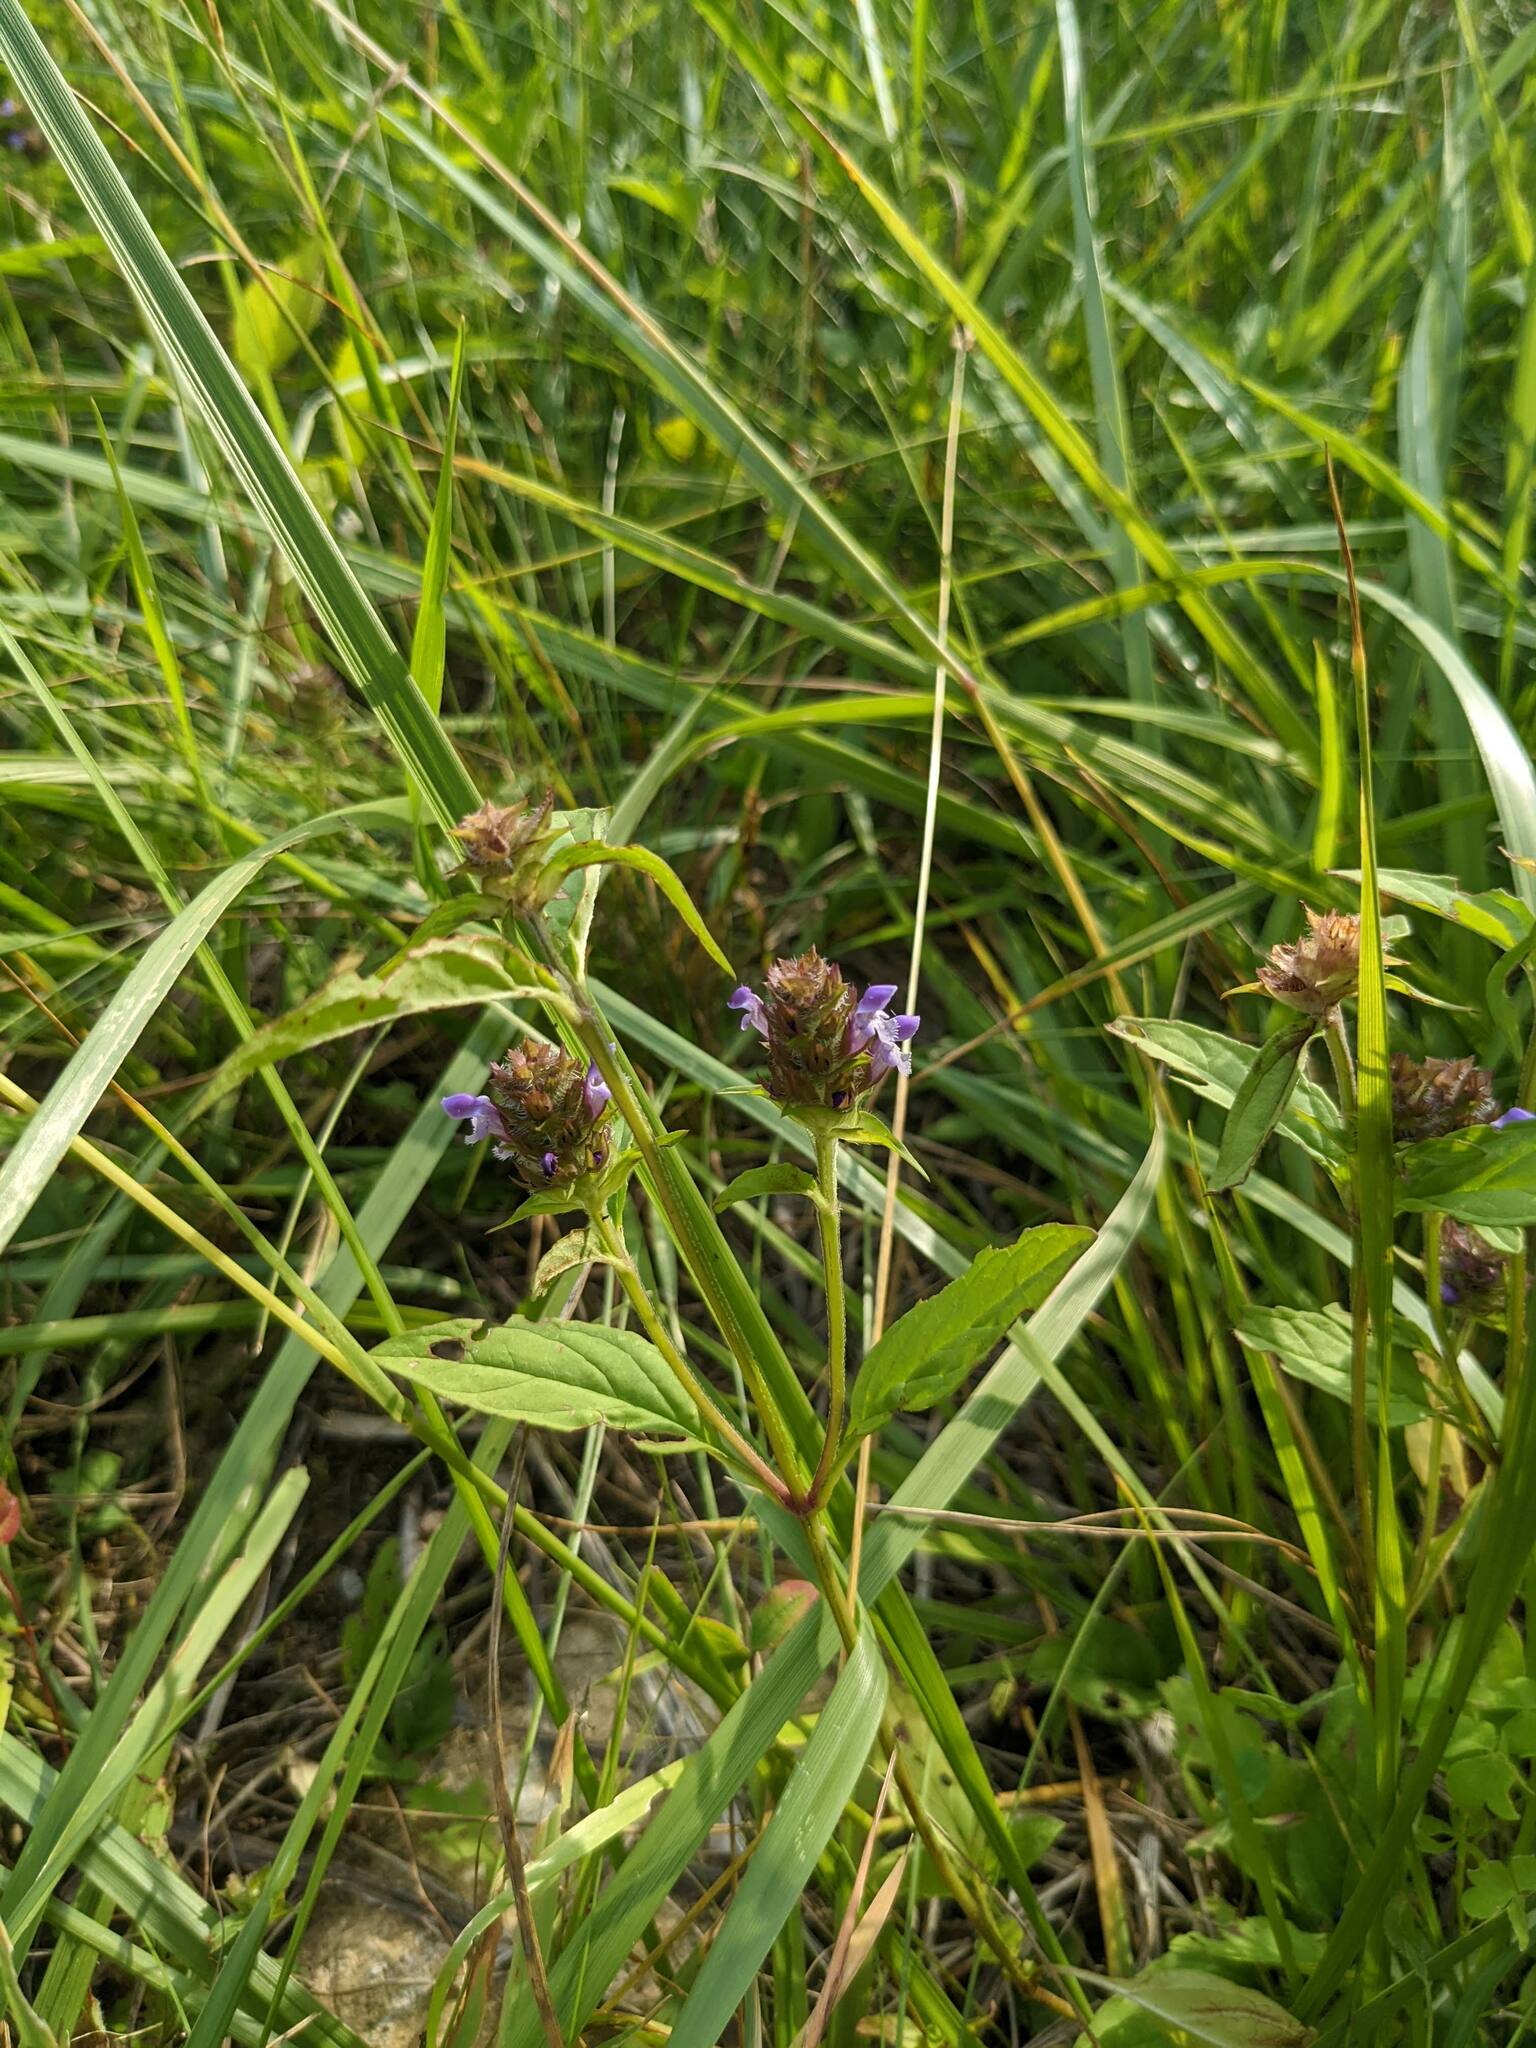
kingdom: Plantae
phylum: Tracheophyta
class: Magnoliopsida
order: Lamiales
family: Lamiaceae
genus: Prunella
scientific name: Prunella vulgaris
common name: Heal-all
